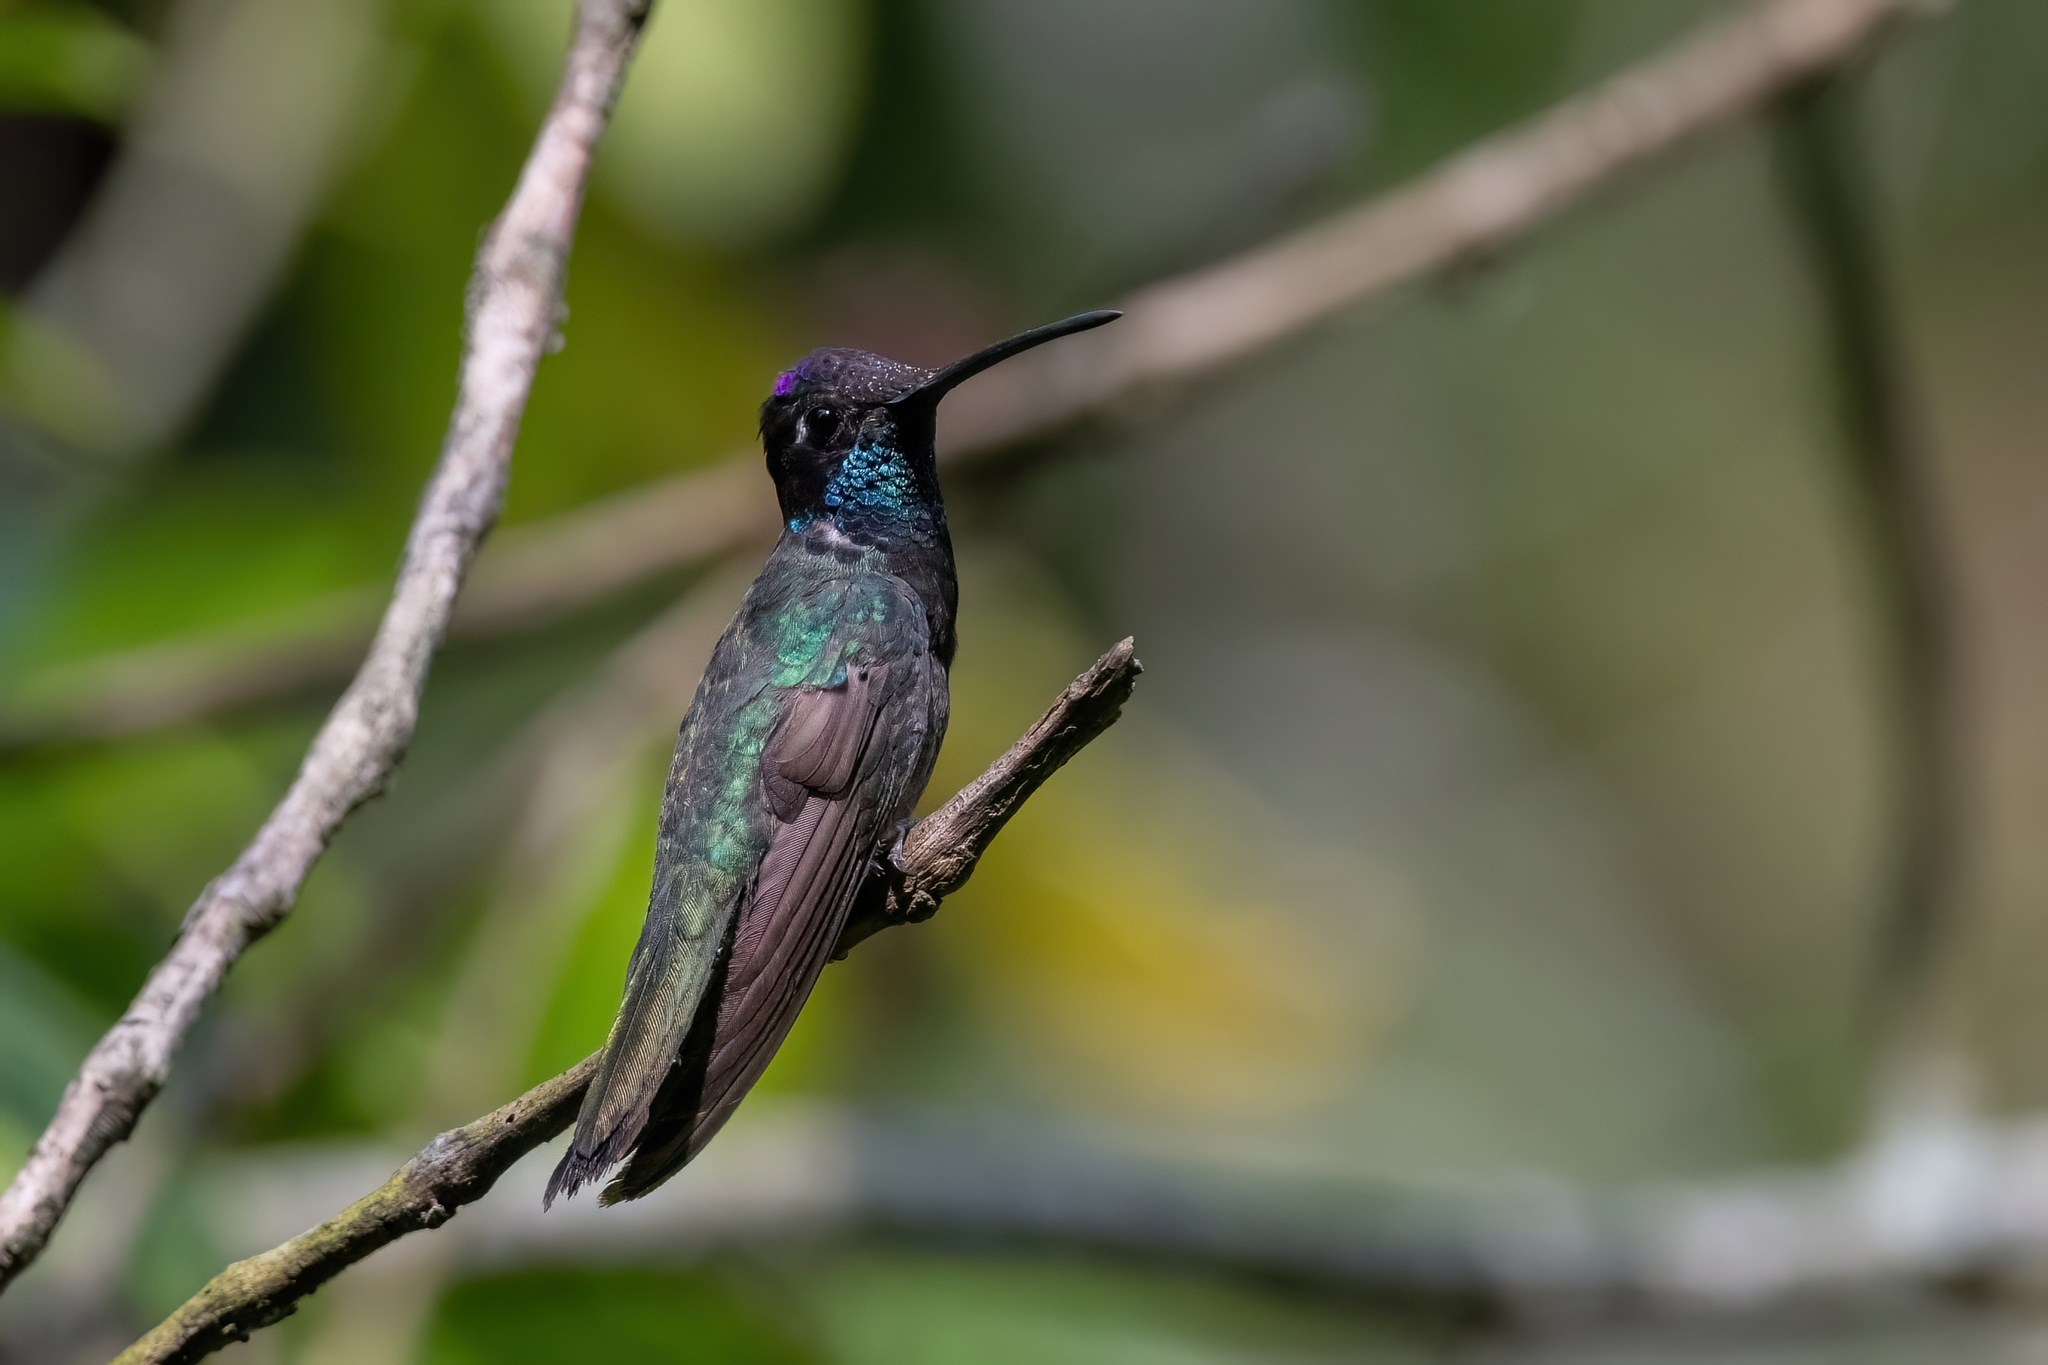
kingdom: Animalia
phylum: Chordata
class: Aves
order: Apodiformes
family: Trochilidae
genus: Eugenes
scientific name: Eugenes fulgens
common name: Magnificent hummingbird
